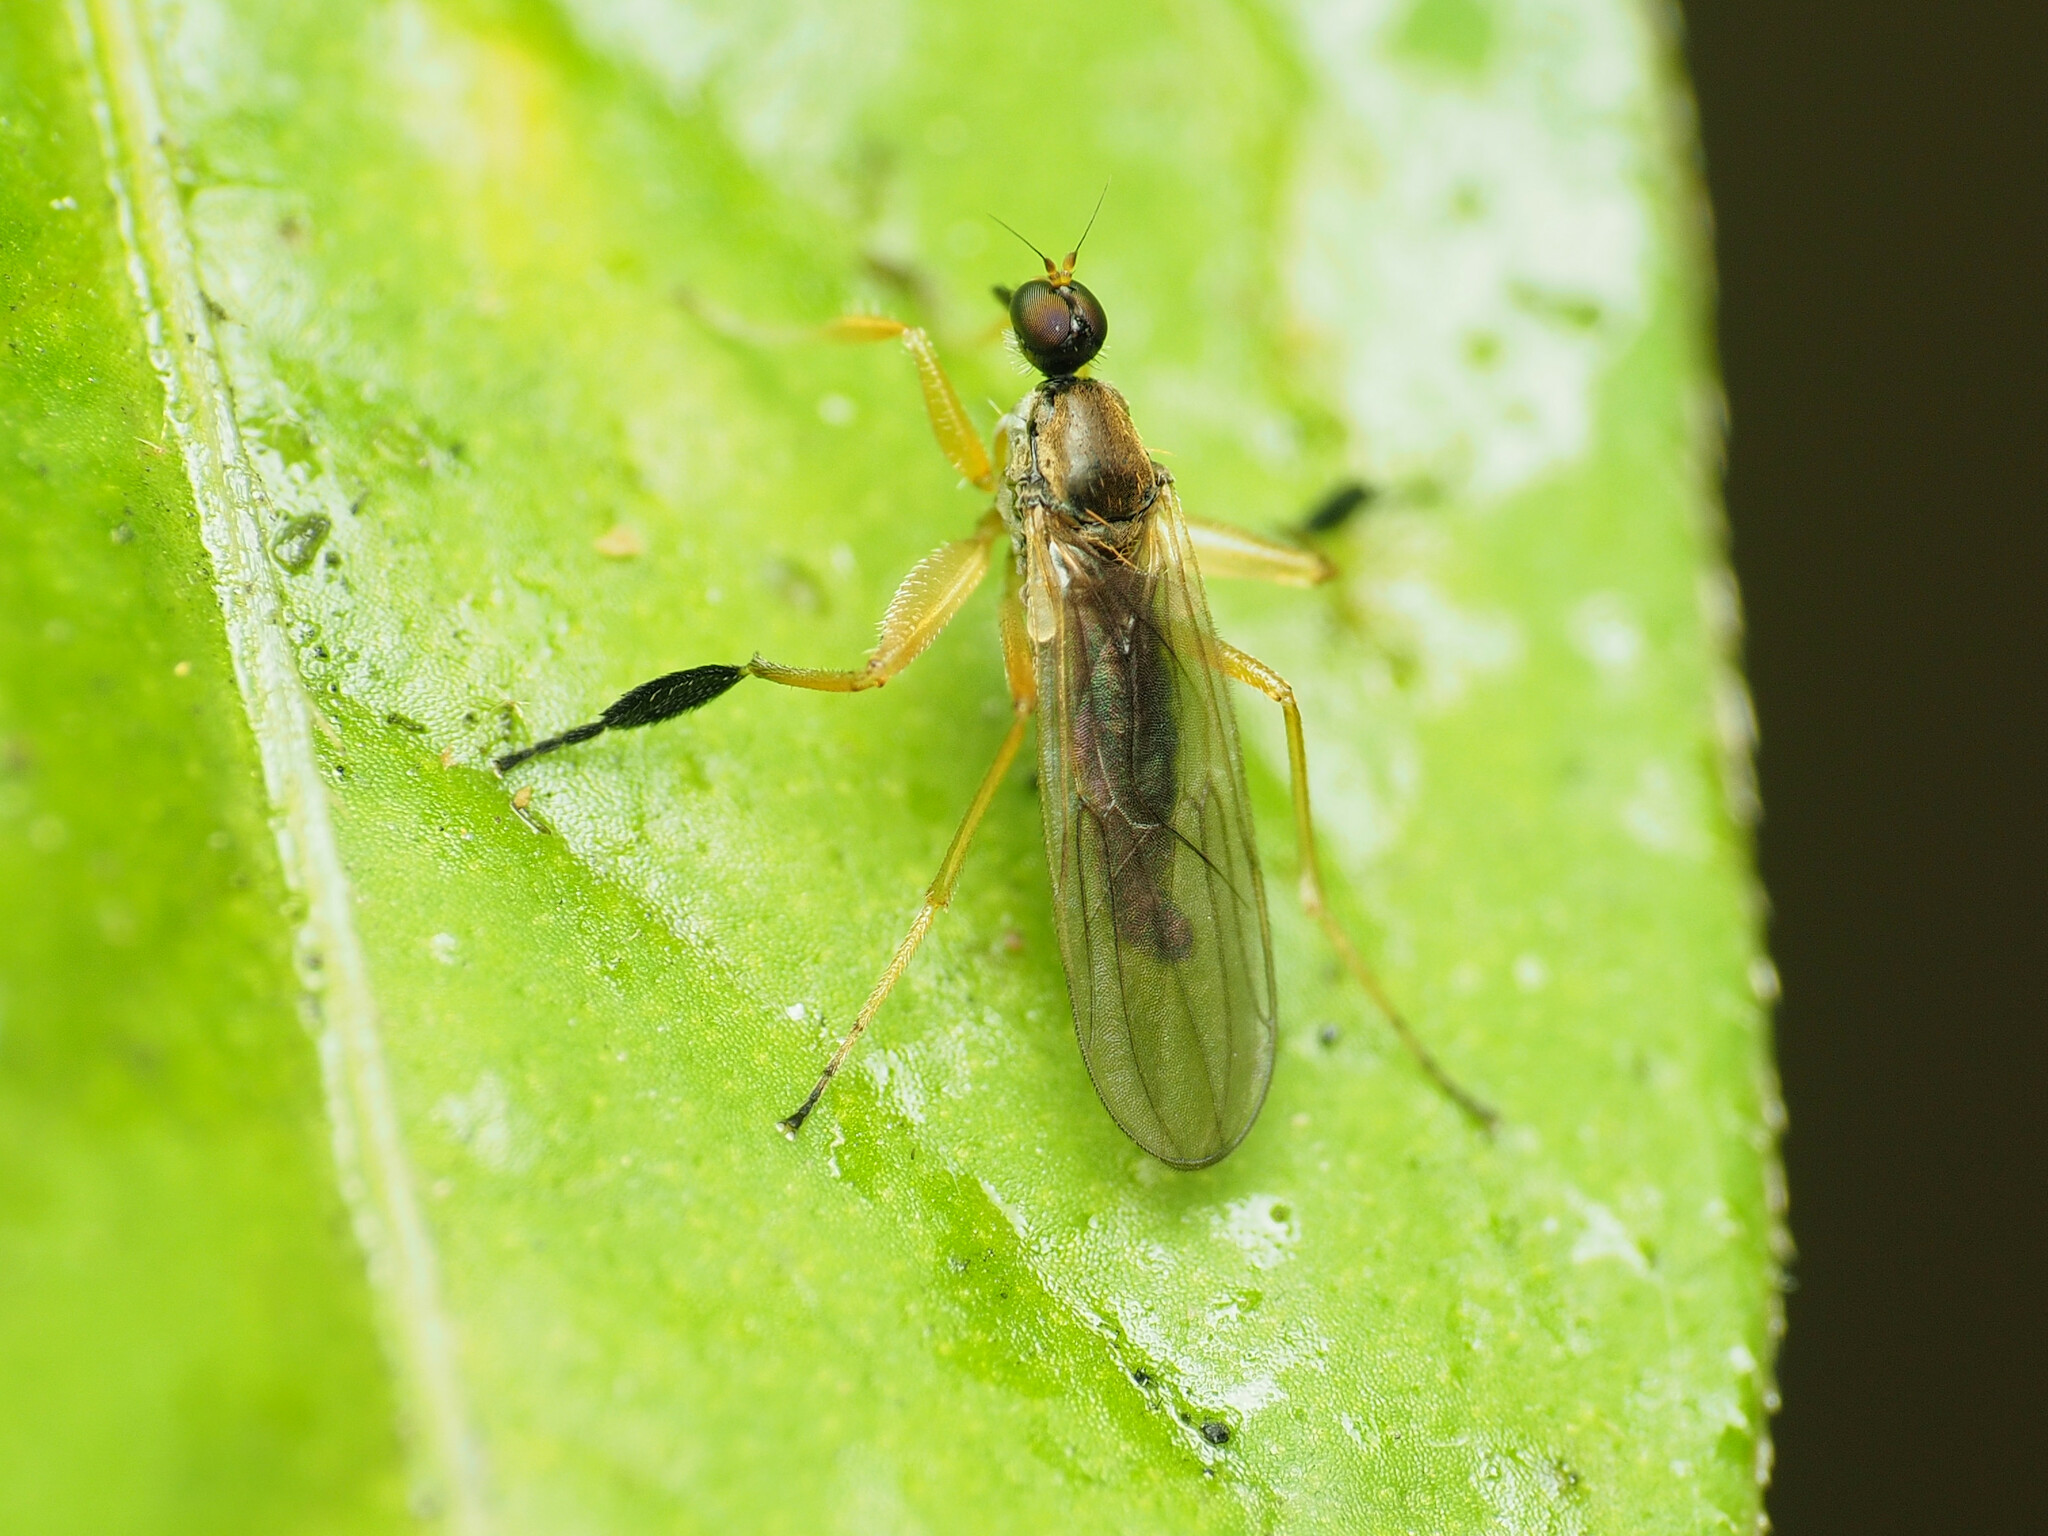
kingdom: Animalia
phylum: Arthropoda
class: Insecta
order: Diptera
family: Hybotidae
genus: Platypalpus
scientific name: Platypalpus discifer
